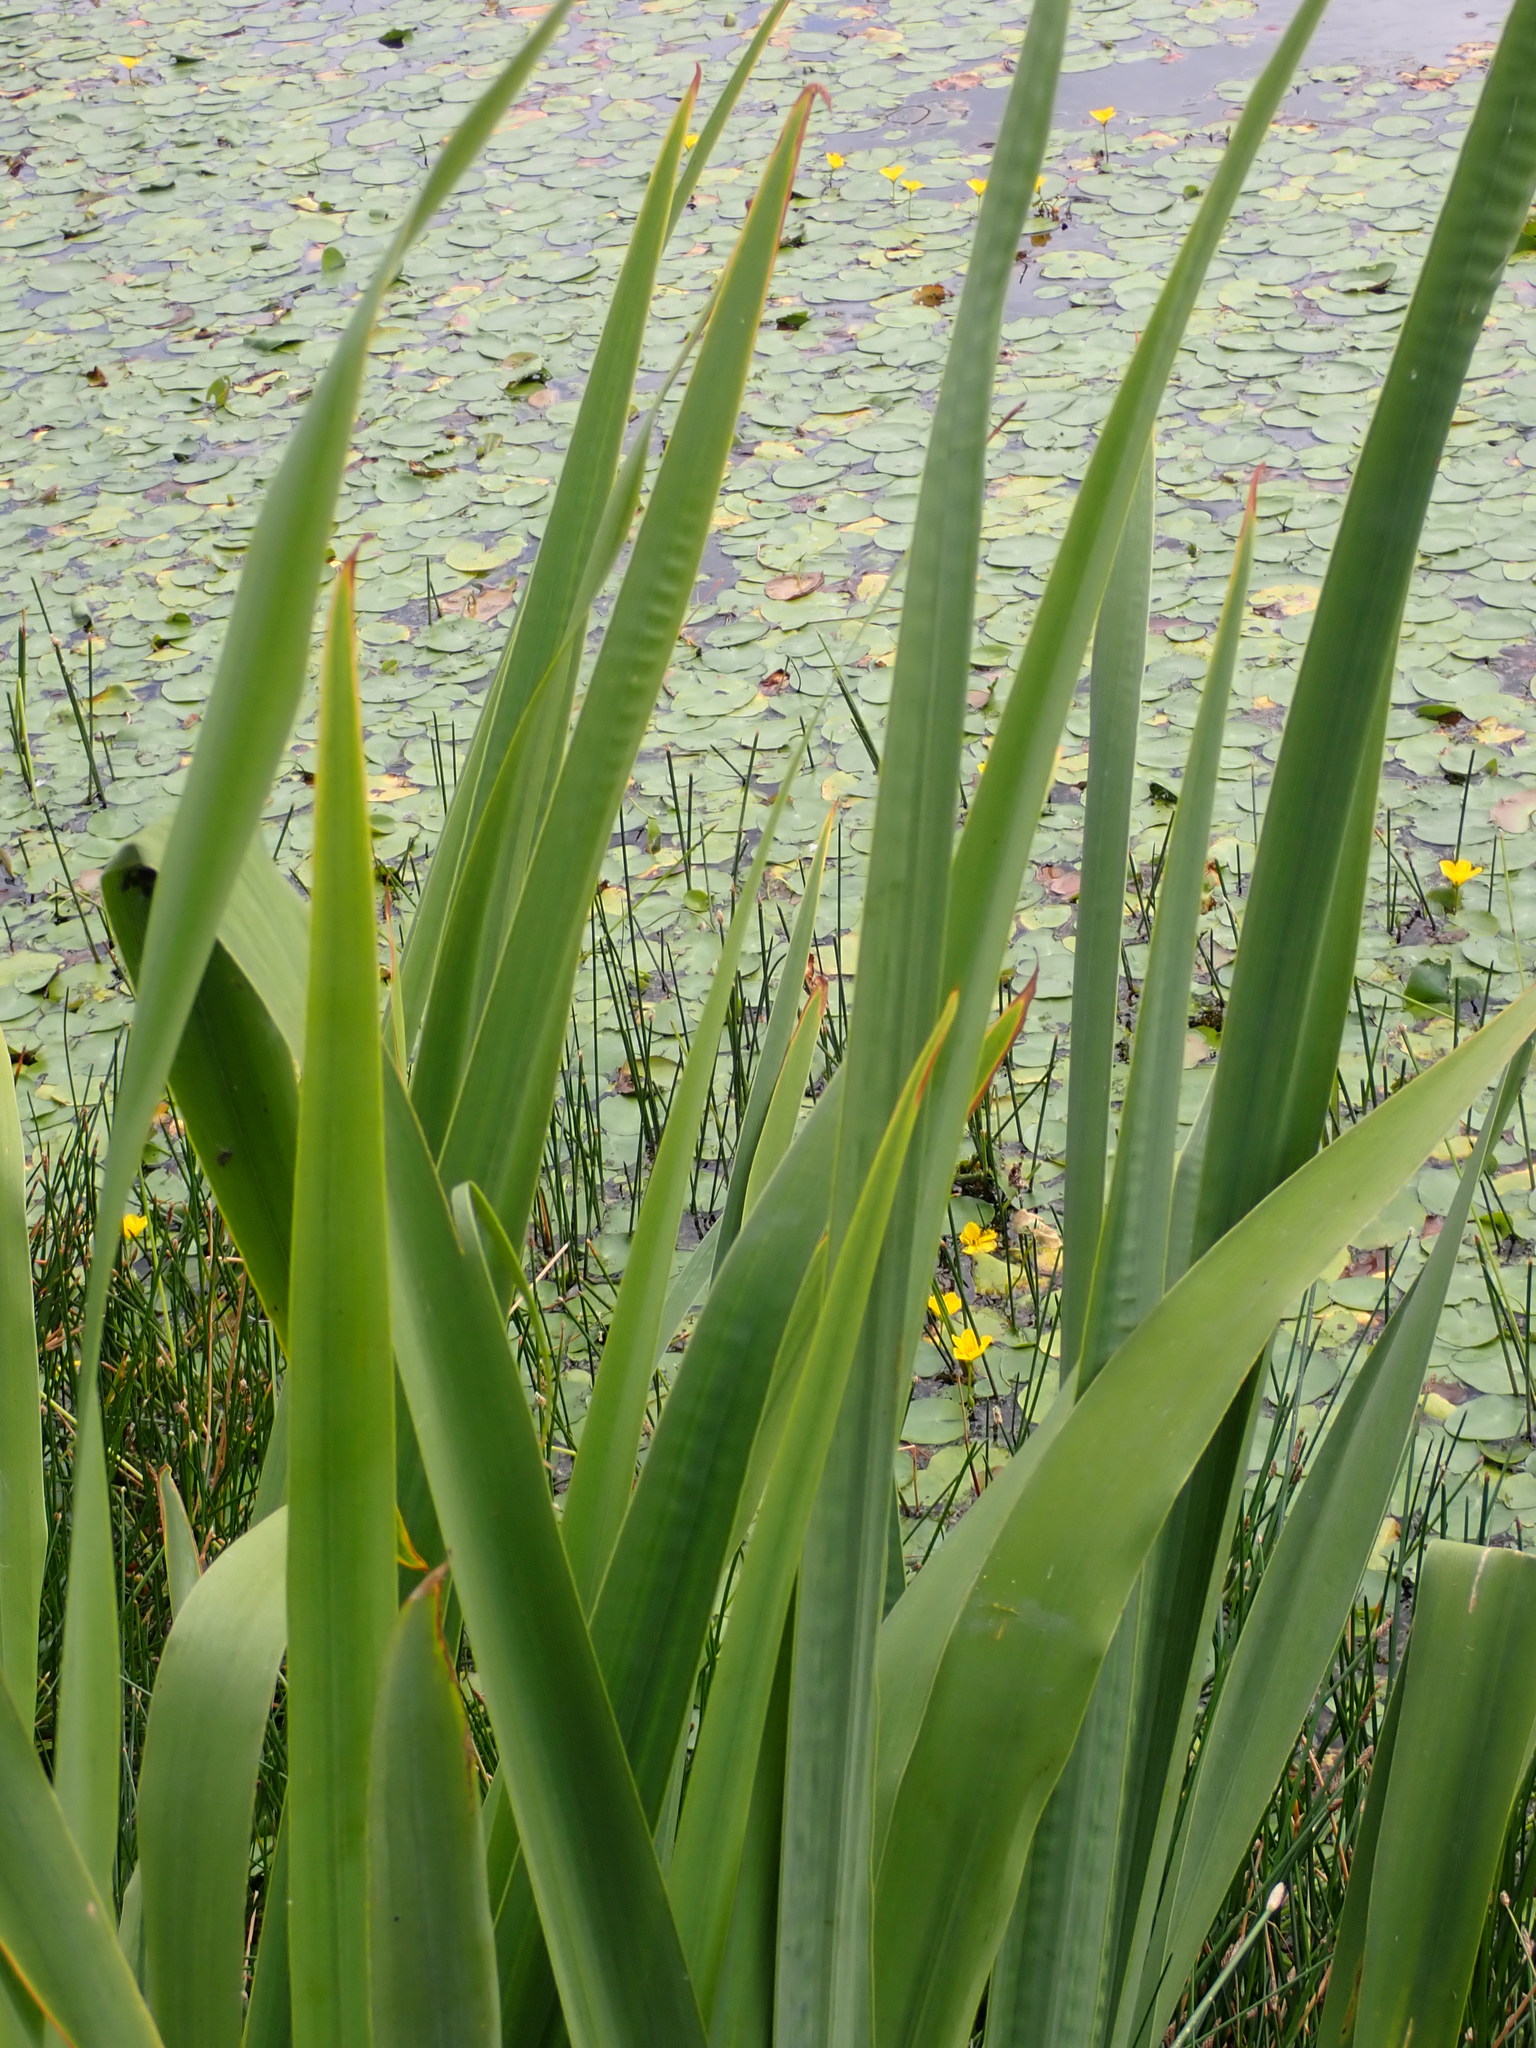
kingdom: Plantae
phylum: Tracheophyta
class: Liliopsida
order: Asparagales
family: Iridaceae
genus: Iris
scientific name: Iris pseudacorus
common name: Yellow flag
